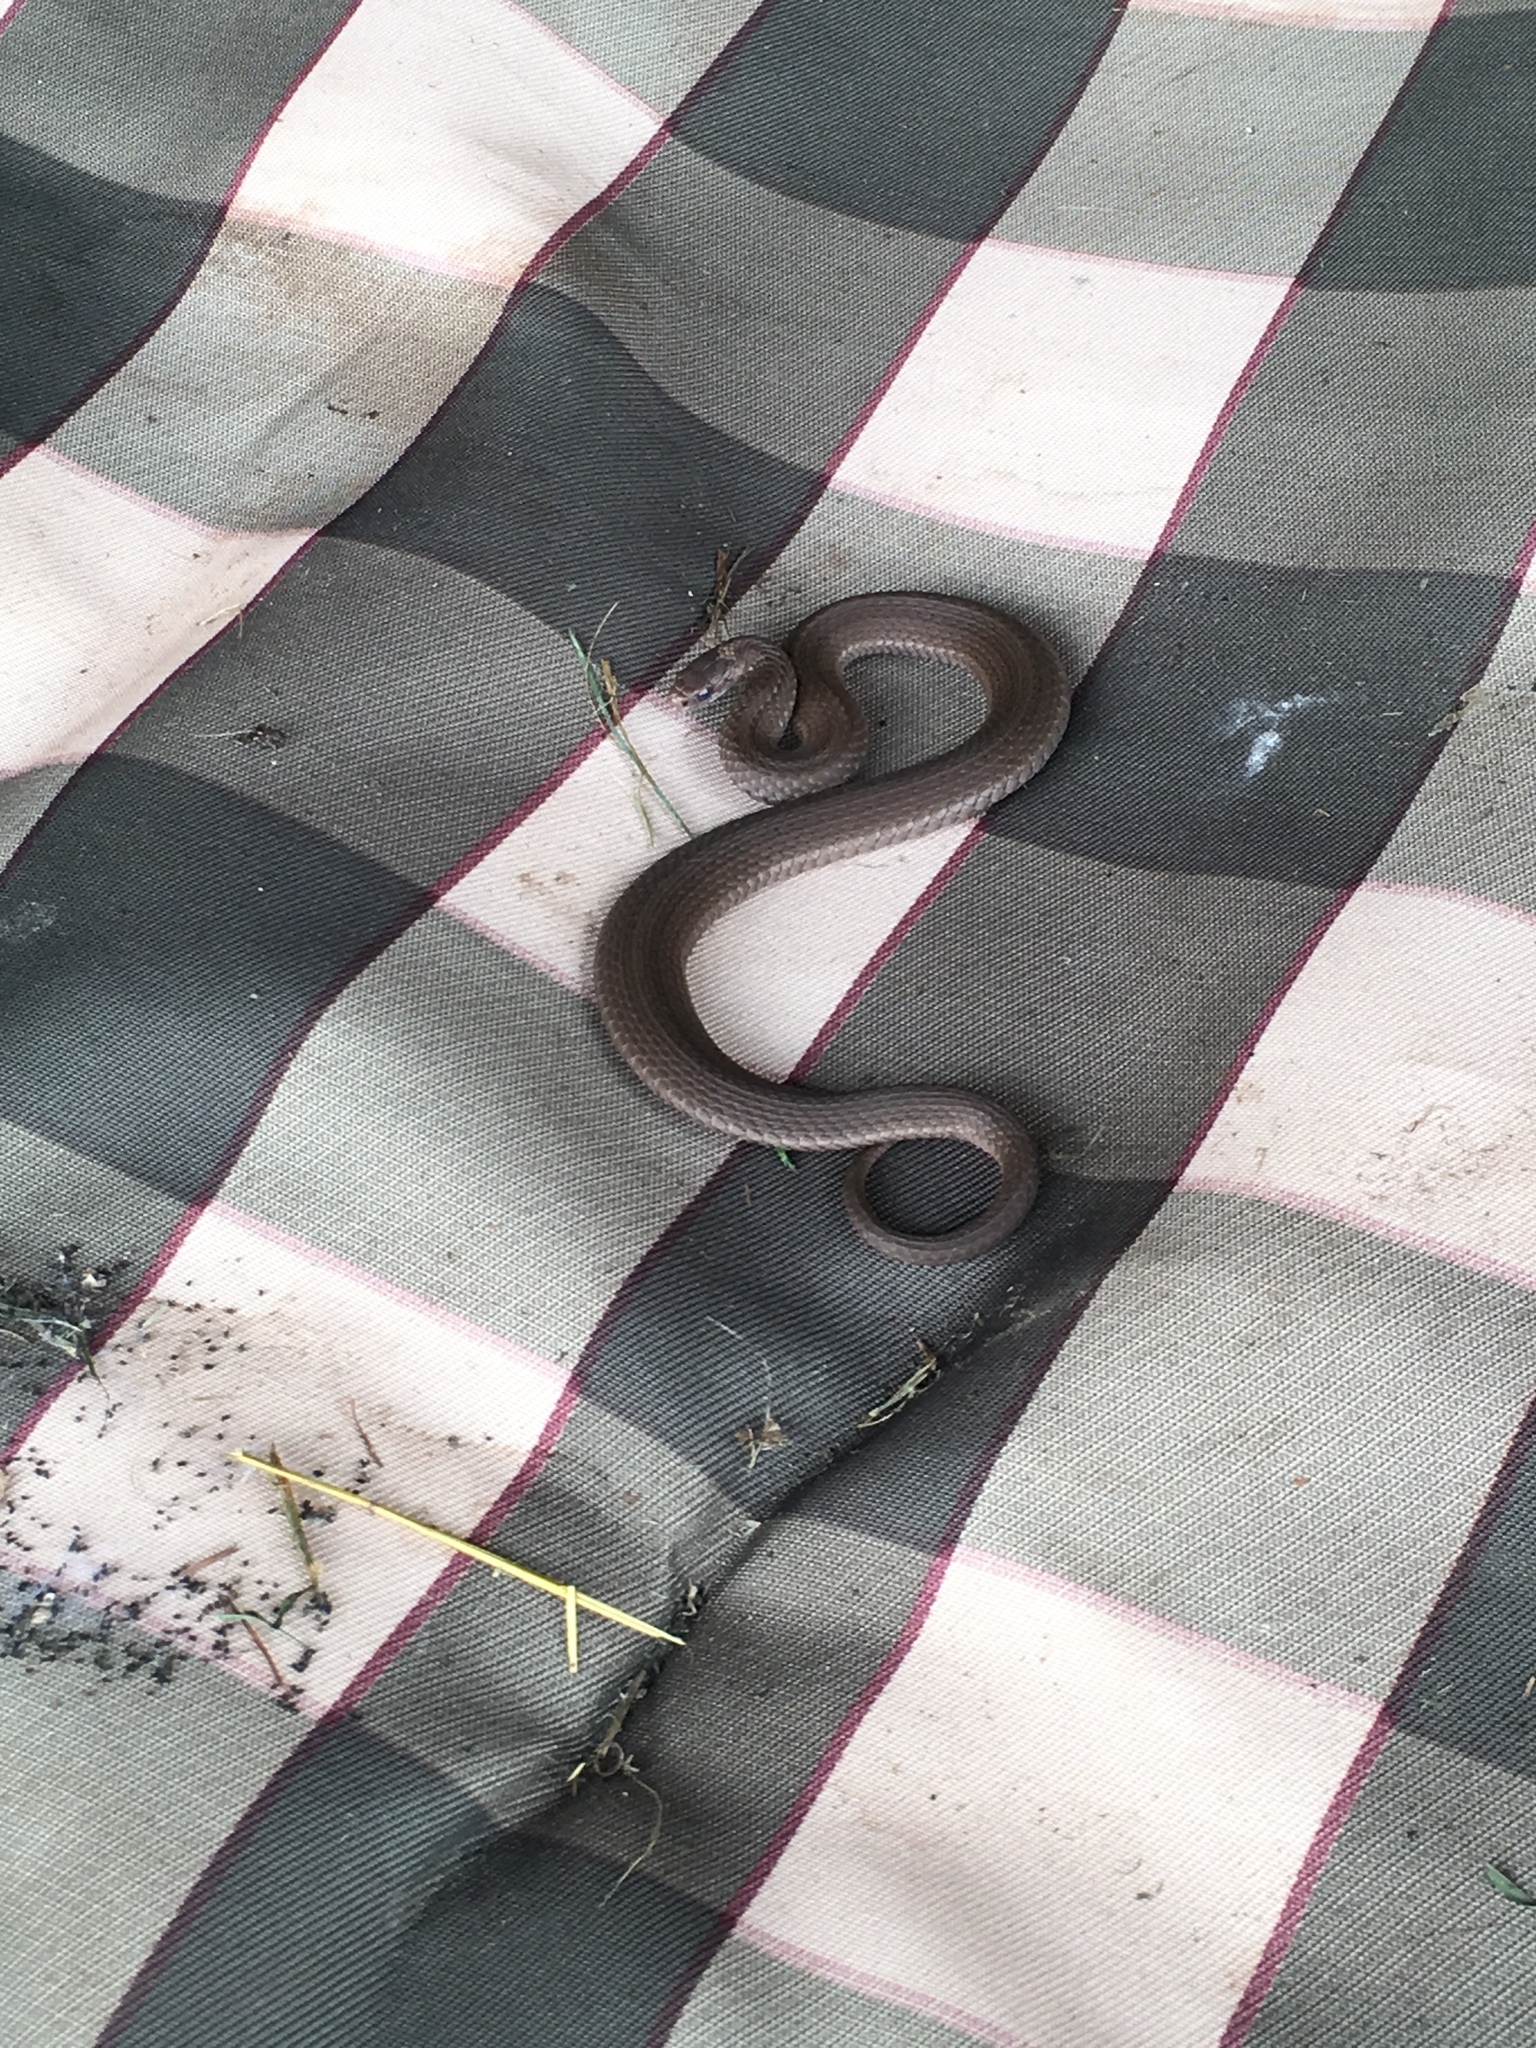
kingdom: Animalia
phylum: Chordata
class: Squamata
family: Colubridae
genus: Storeria
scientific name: Storeria occipitomaculata
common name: Redbelly snake
